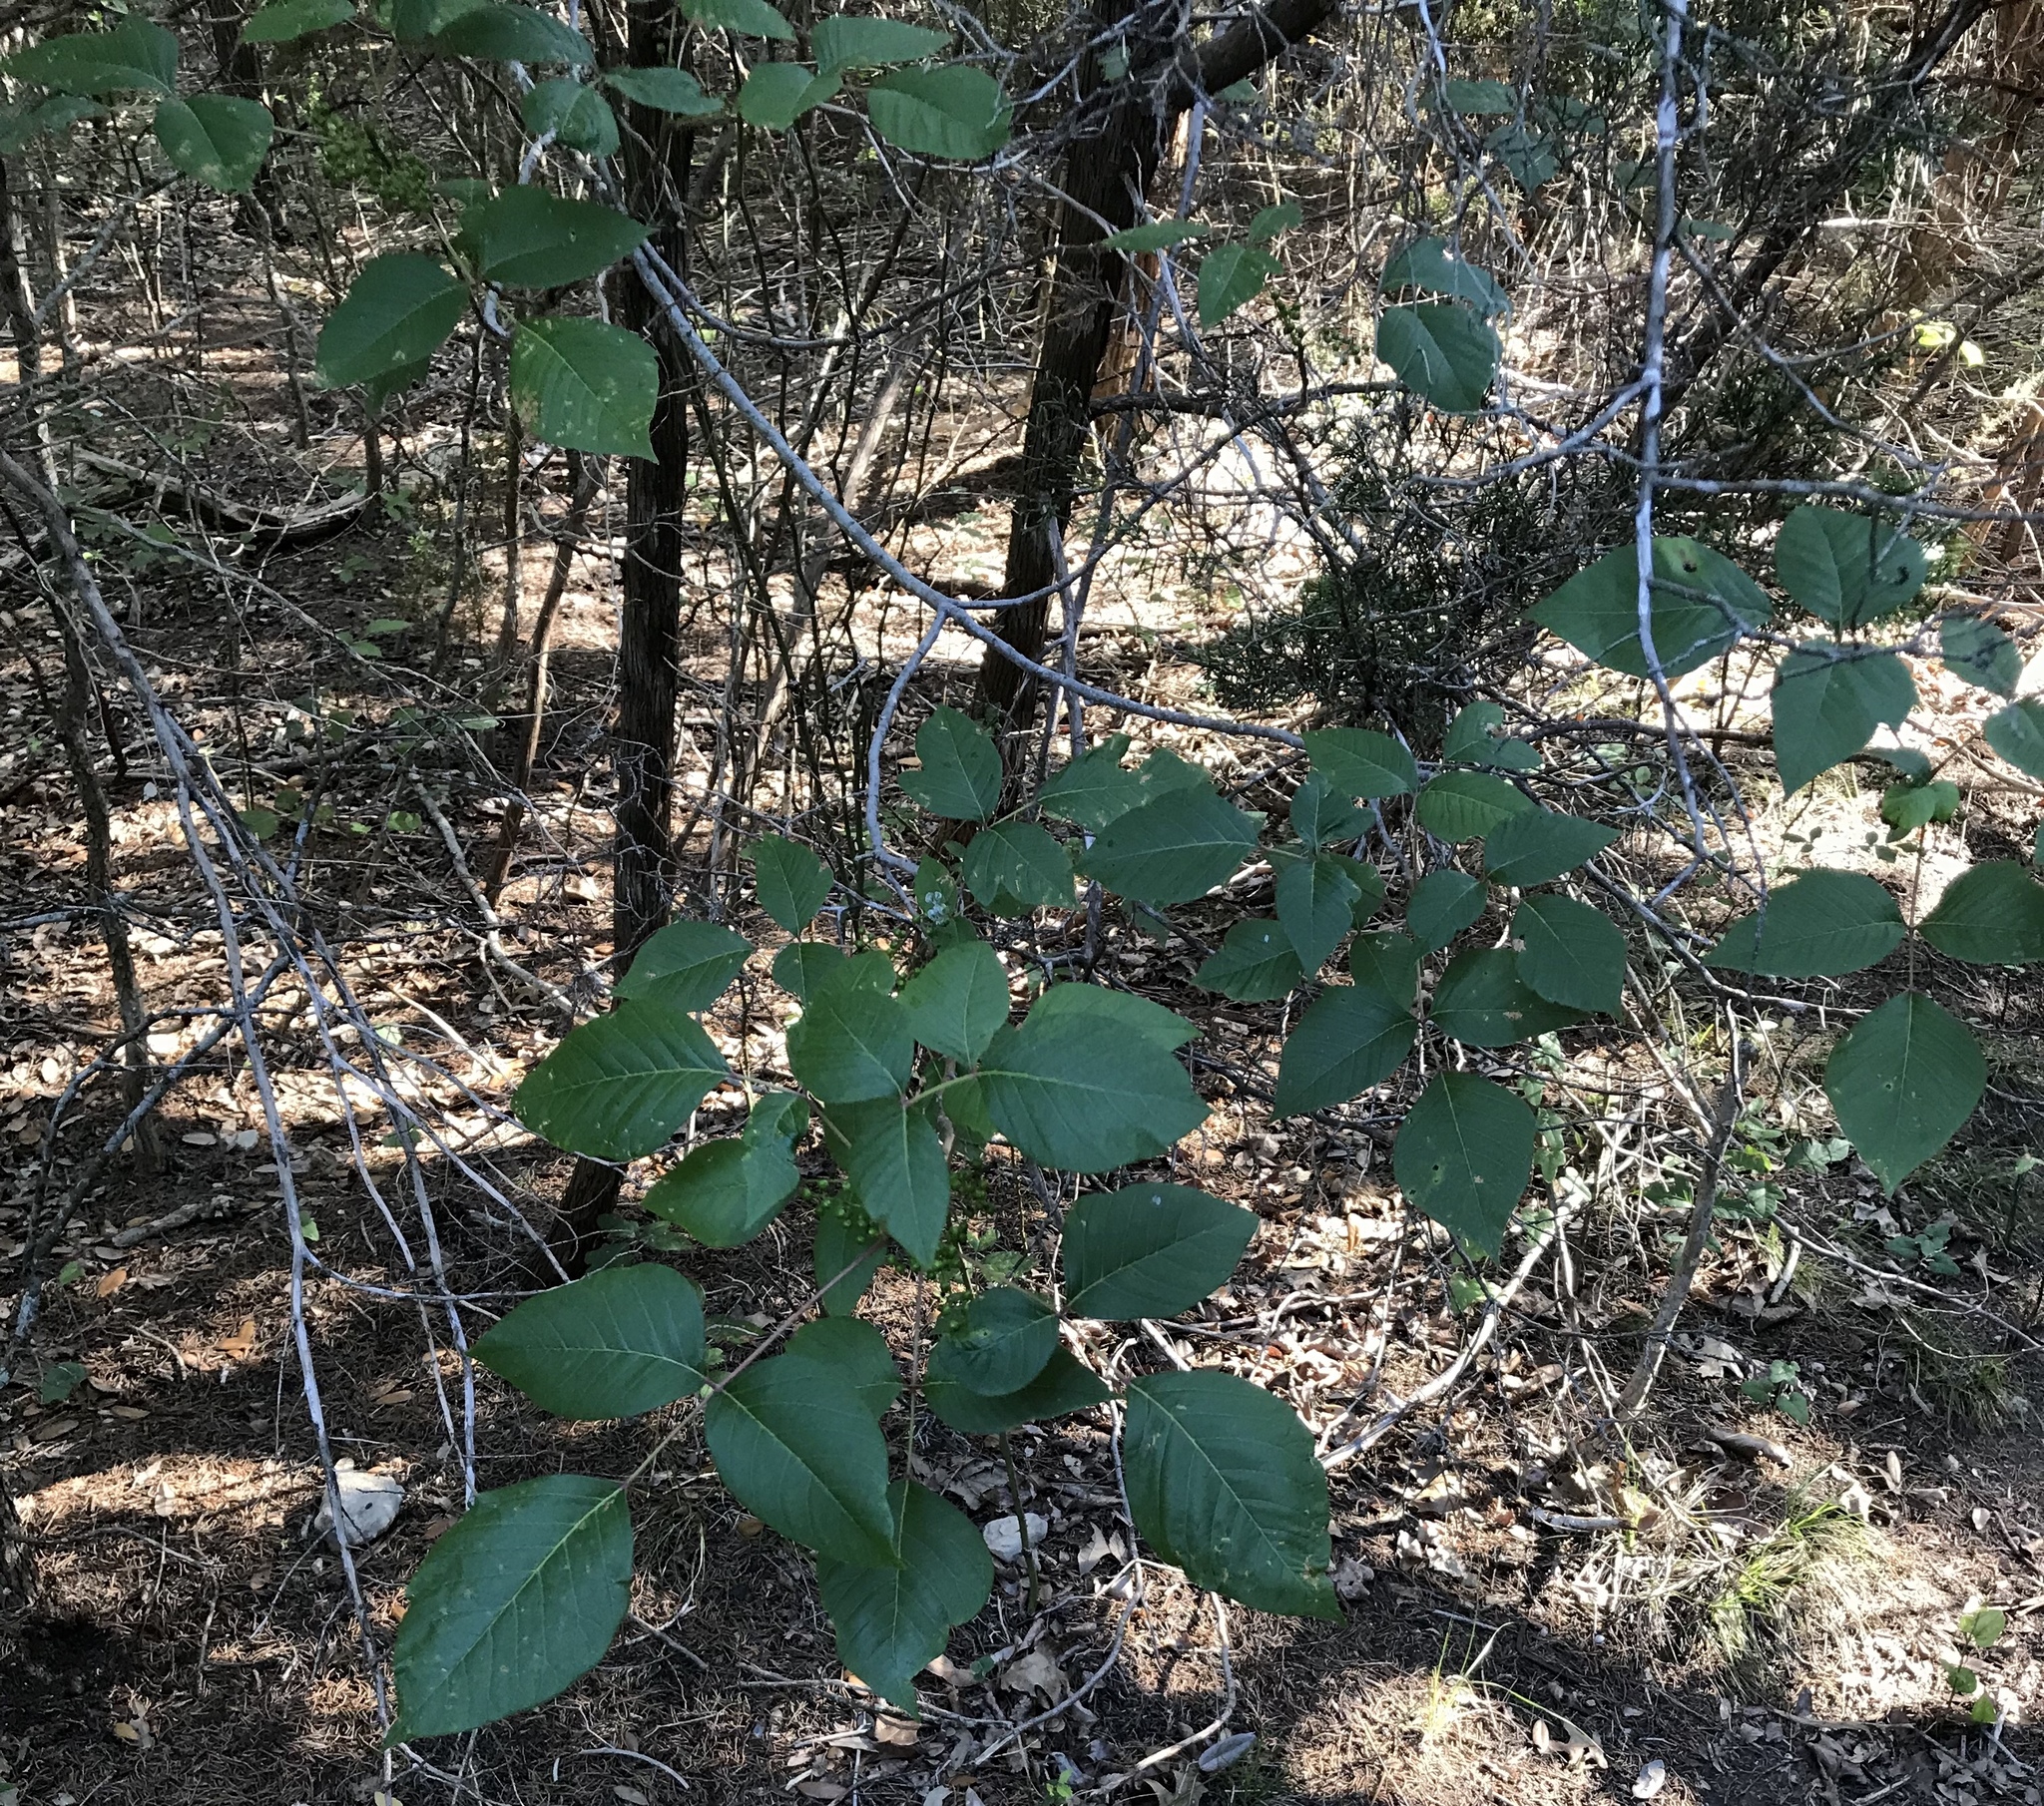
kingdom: Plantae
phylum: Tracheophyta
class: Magnoliopsida
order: Sapindales
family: Anacardiaceae
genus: Toxicodendron
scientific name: Toxicodendron radicans
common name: Poison ivy
